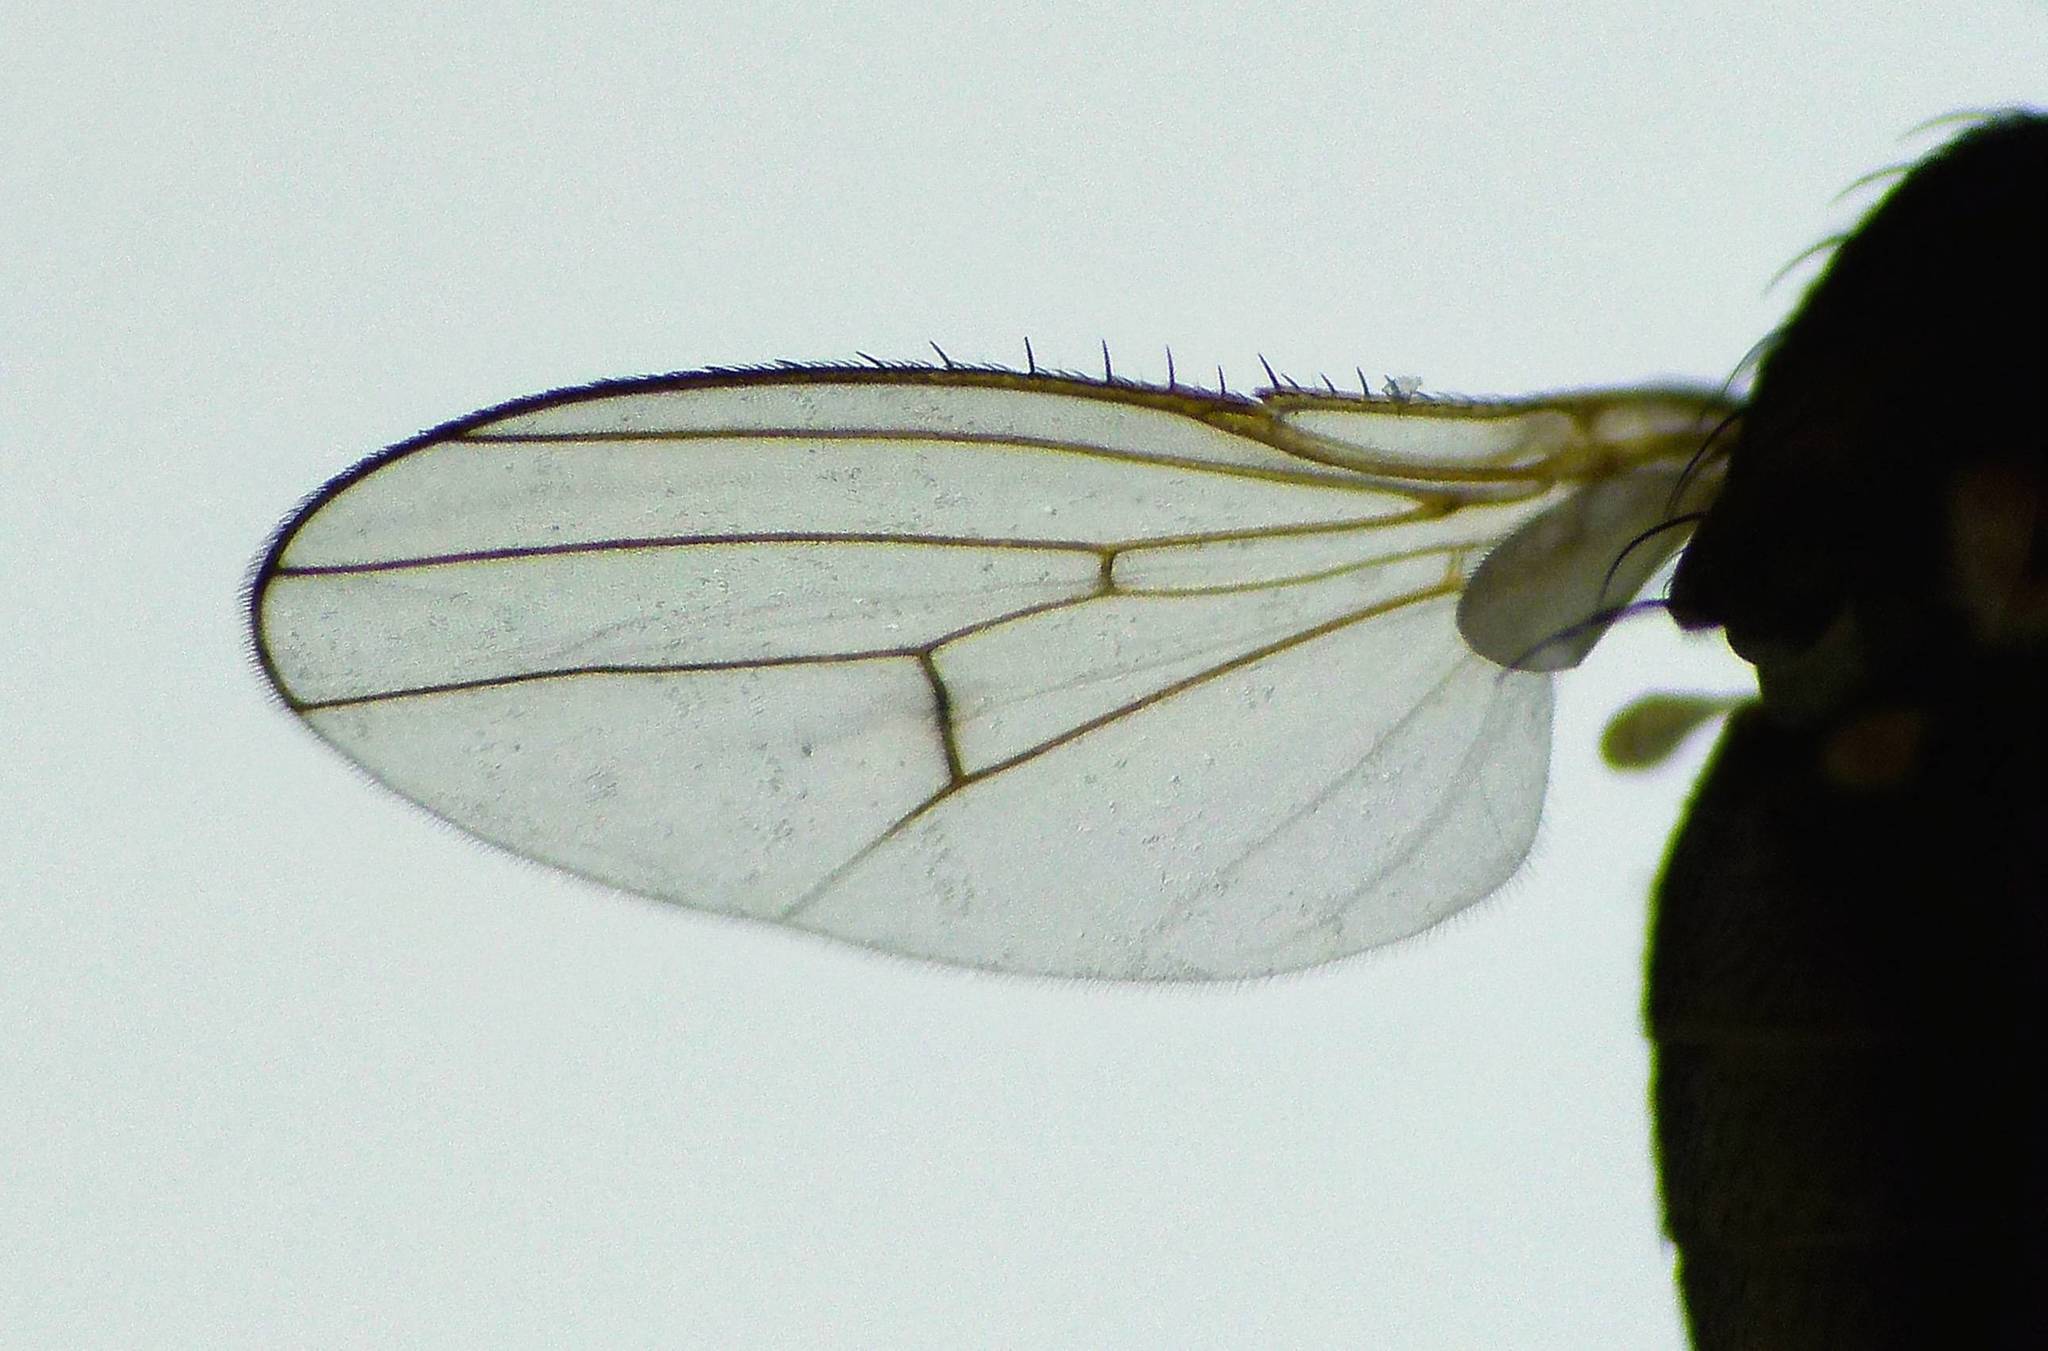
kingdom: Animalia
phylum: Arthropoda
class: Insecta
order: Diptera
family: Canacidae
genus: Tethinosoma
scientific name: Tethinosoma fulvifrons
